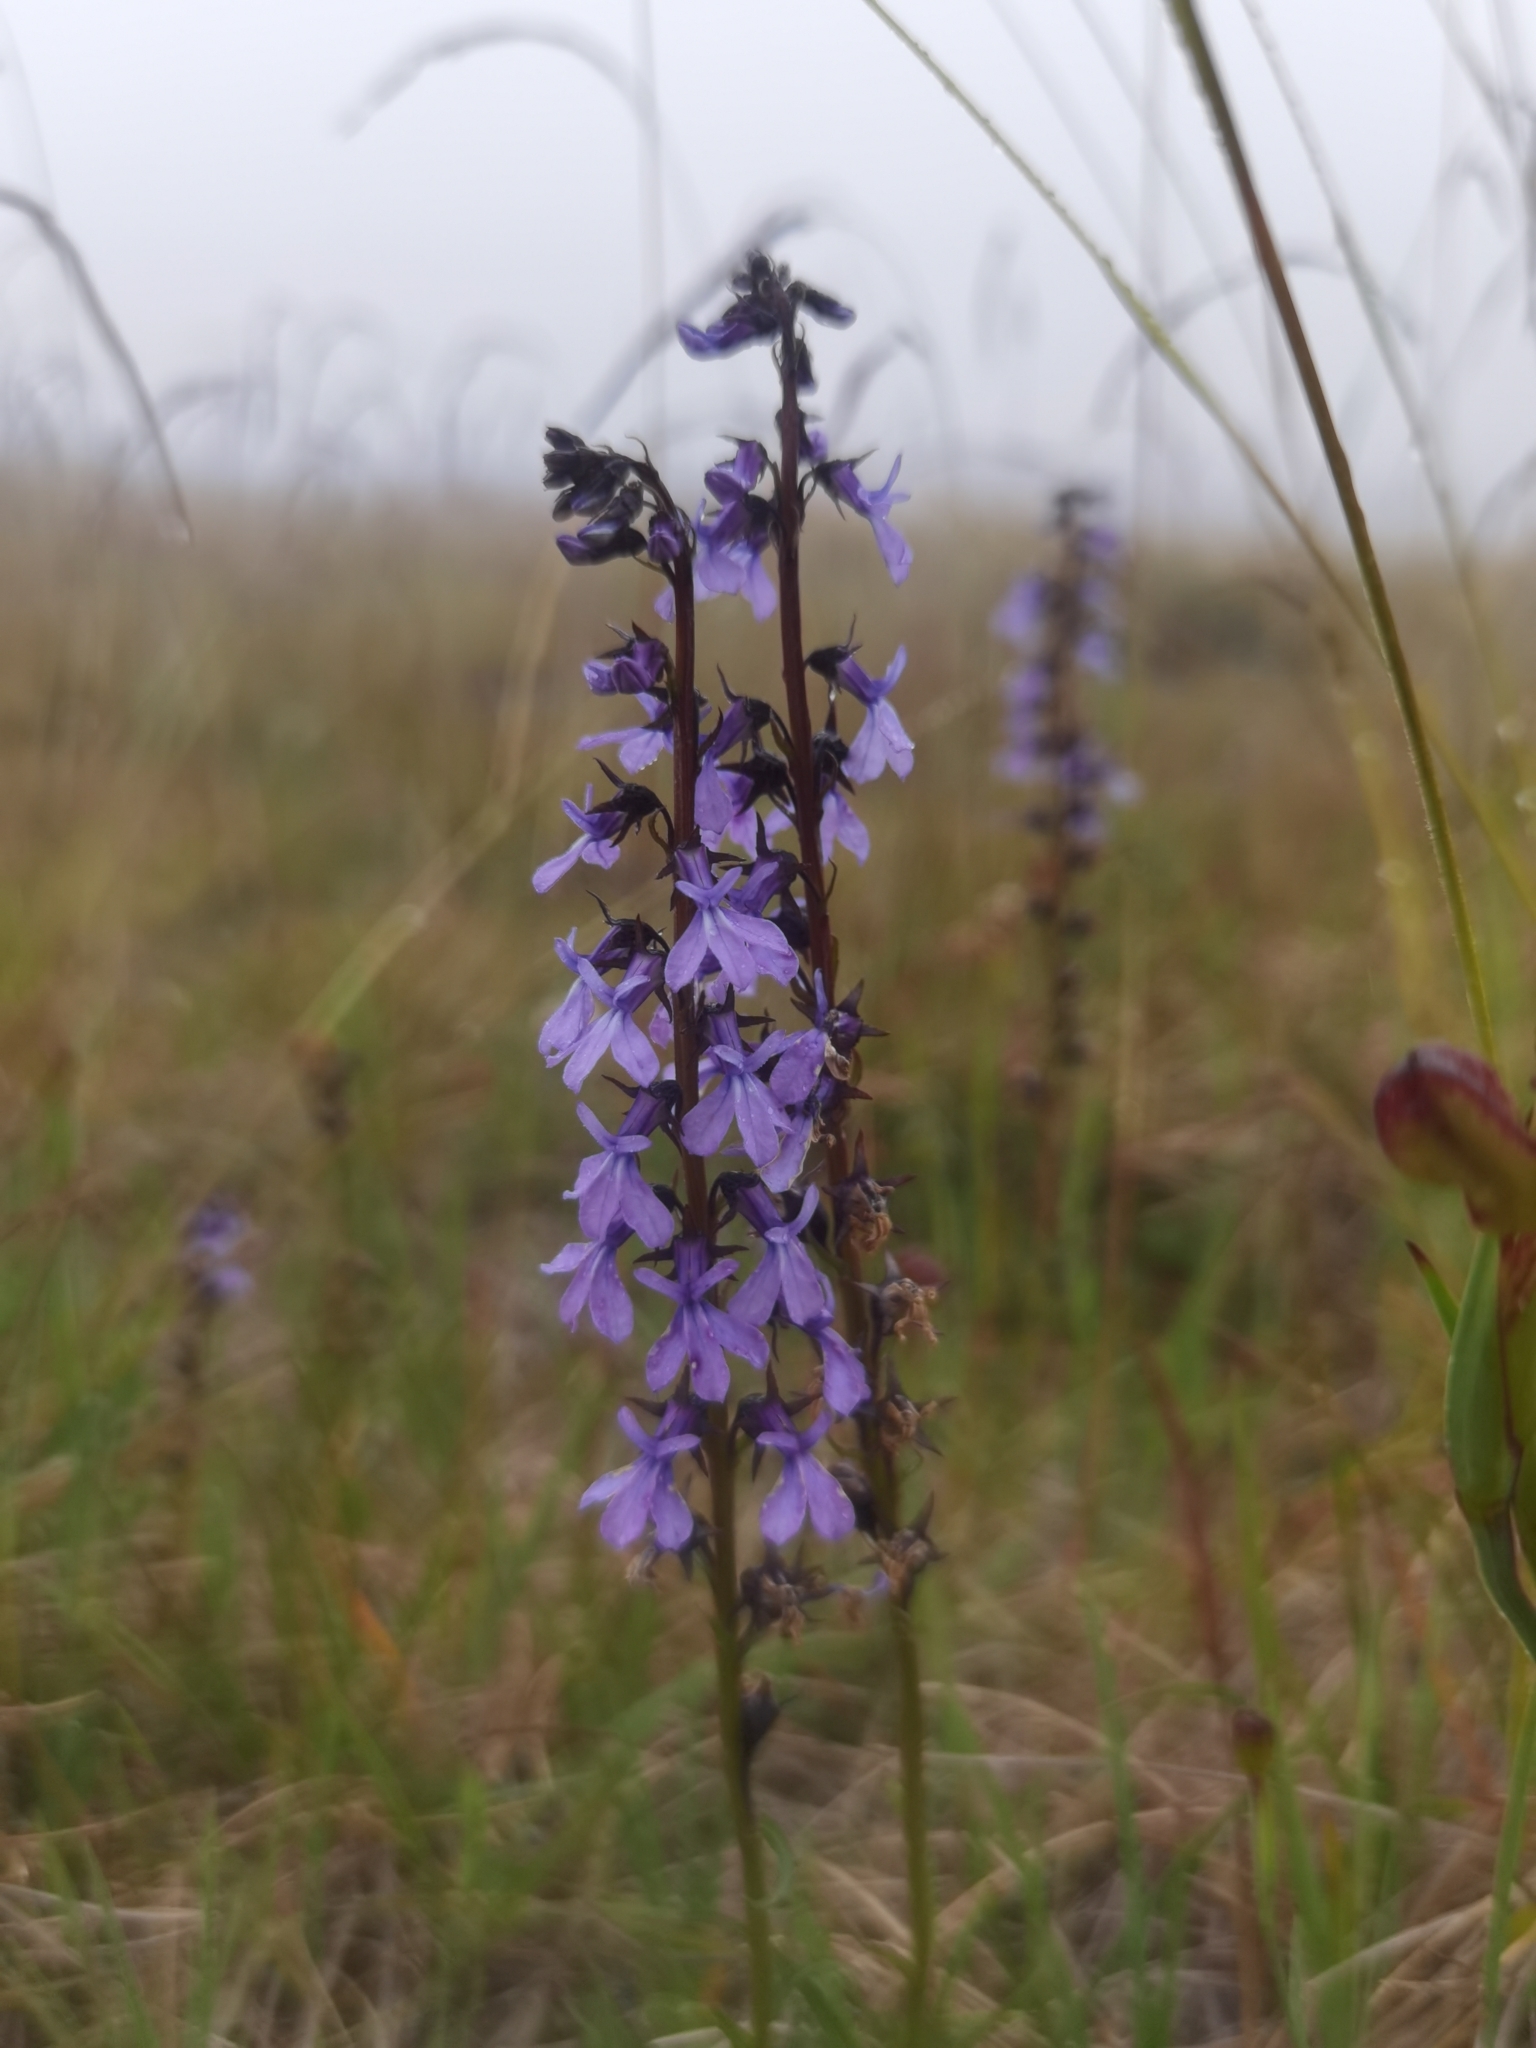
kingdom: Plantae
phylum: Tracheophyta
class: Magnoliopsida
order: Asterales
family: Campanulaceae
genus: Lobelia
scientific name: Lobelia irasuensis
